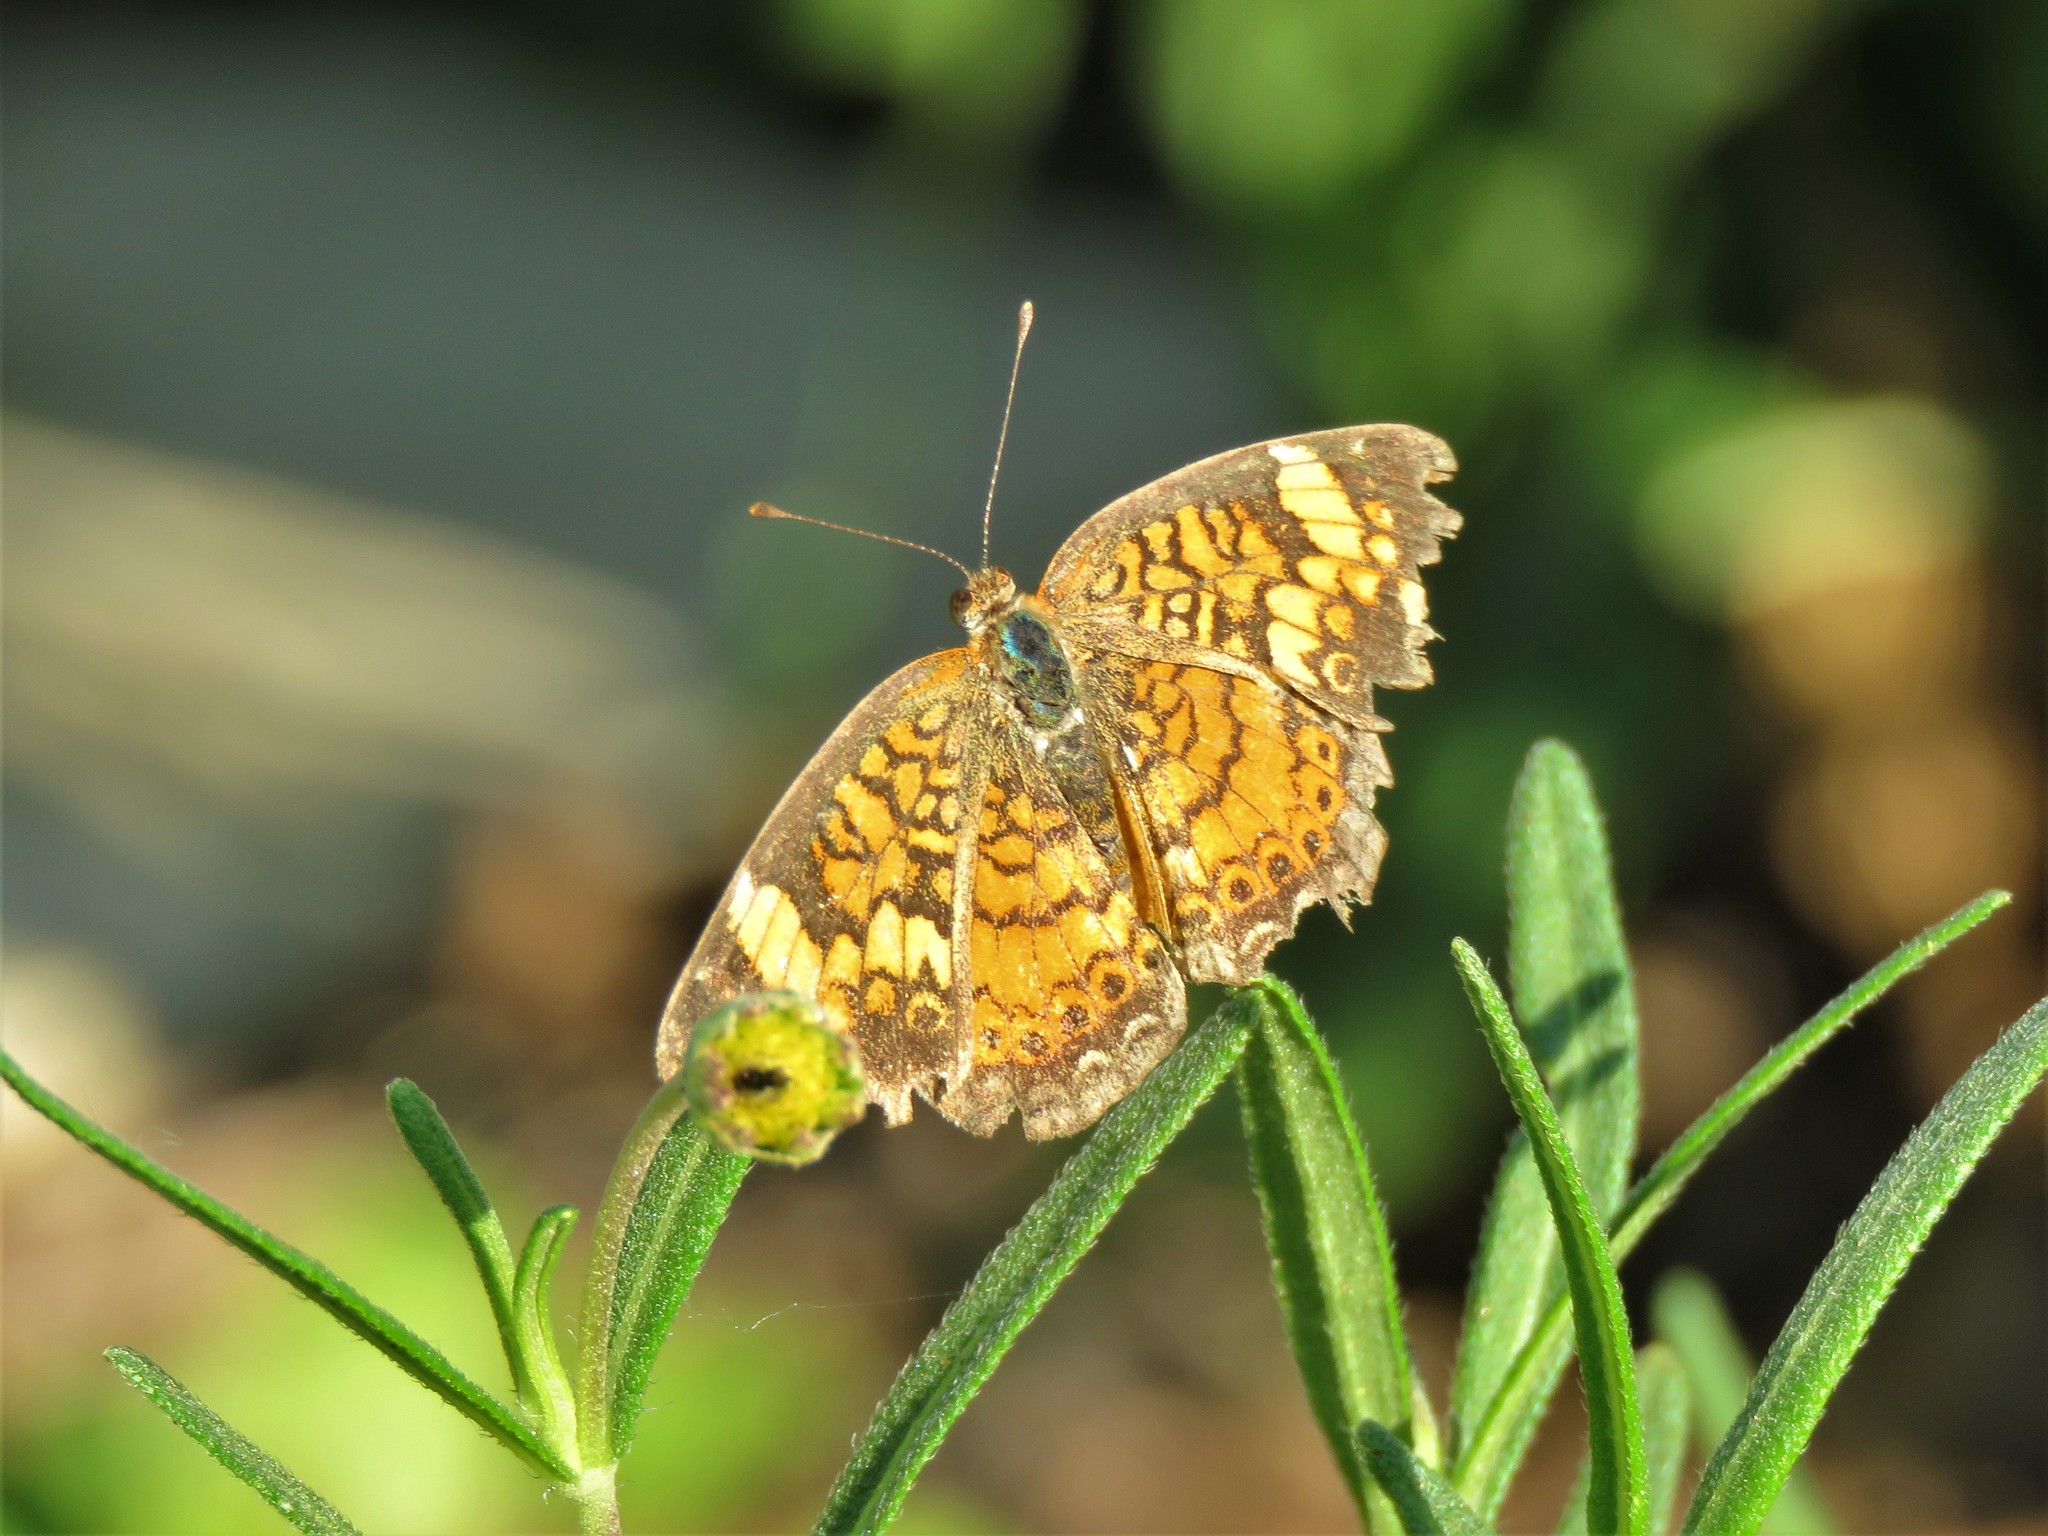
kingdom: Animalia
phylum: Arthropoda
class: Insecta
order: Lepidoptera
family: Nymphalidae
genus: Phyciodes
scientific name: Phyciodes phaon
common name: Phaon crescent
